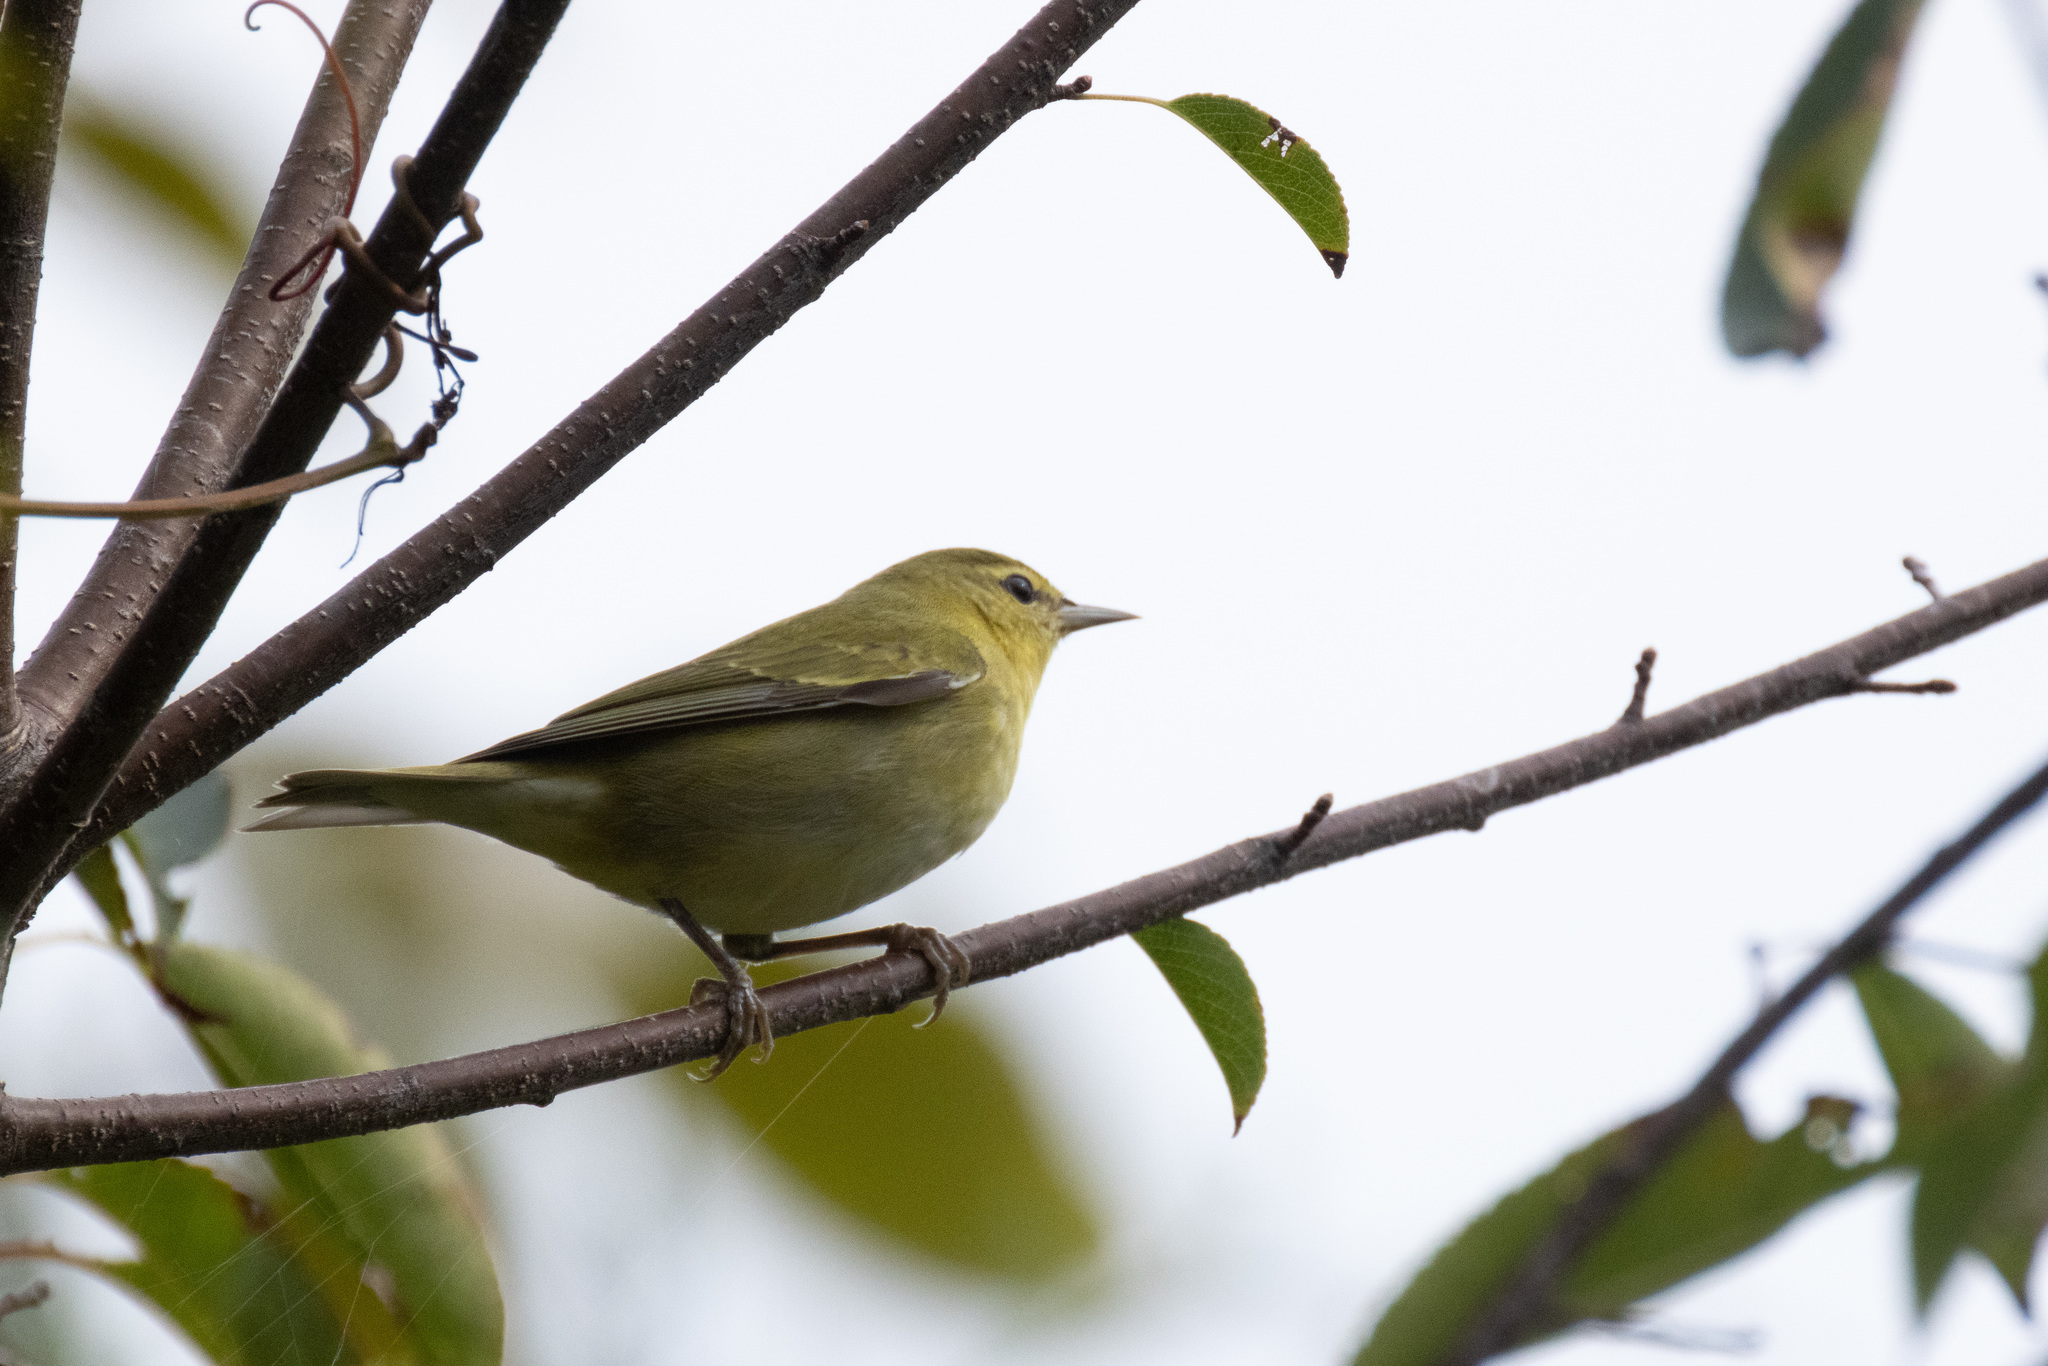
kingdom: Animalia
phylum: Chordata
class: Aves
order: Passeriformes
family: Parulidae
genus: Leiothlypis
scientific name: Leiothlypis peregrina
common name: Tennessee warbler
